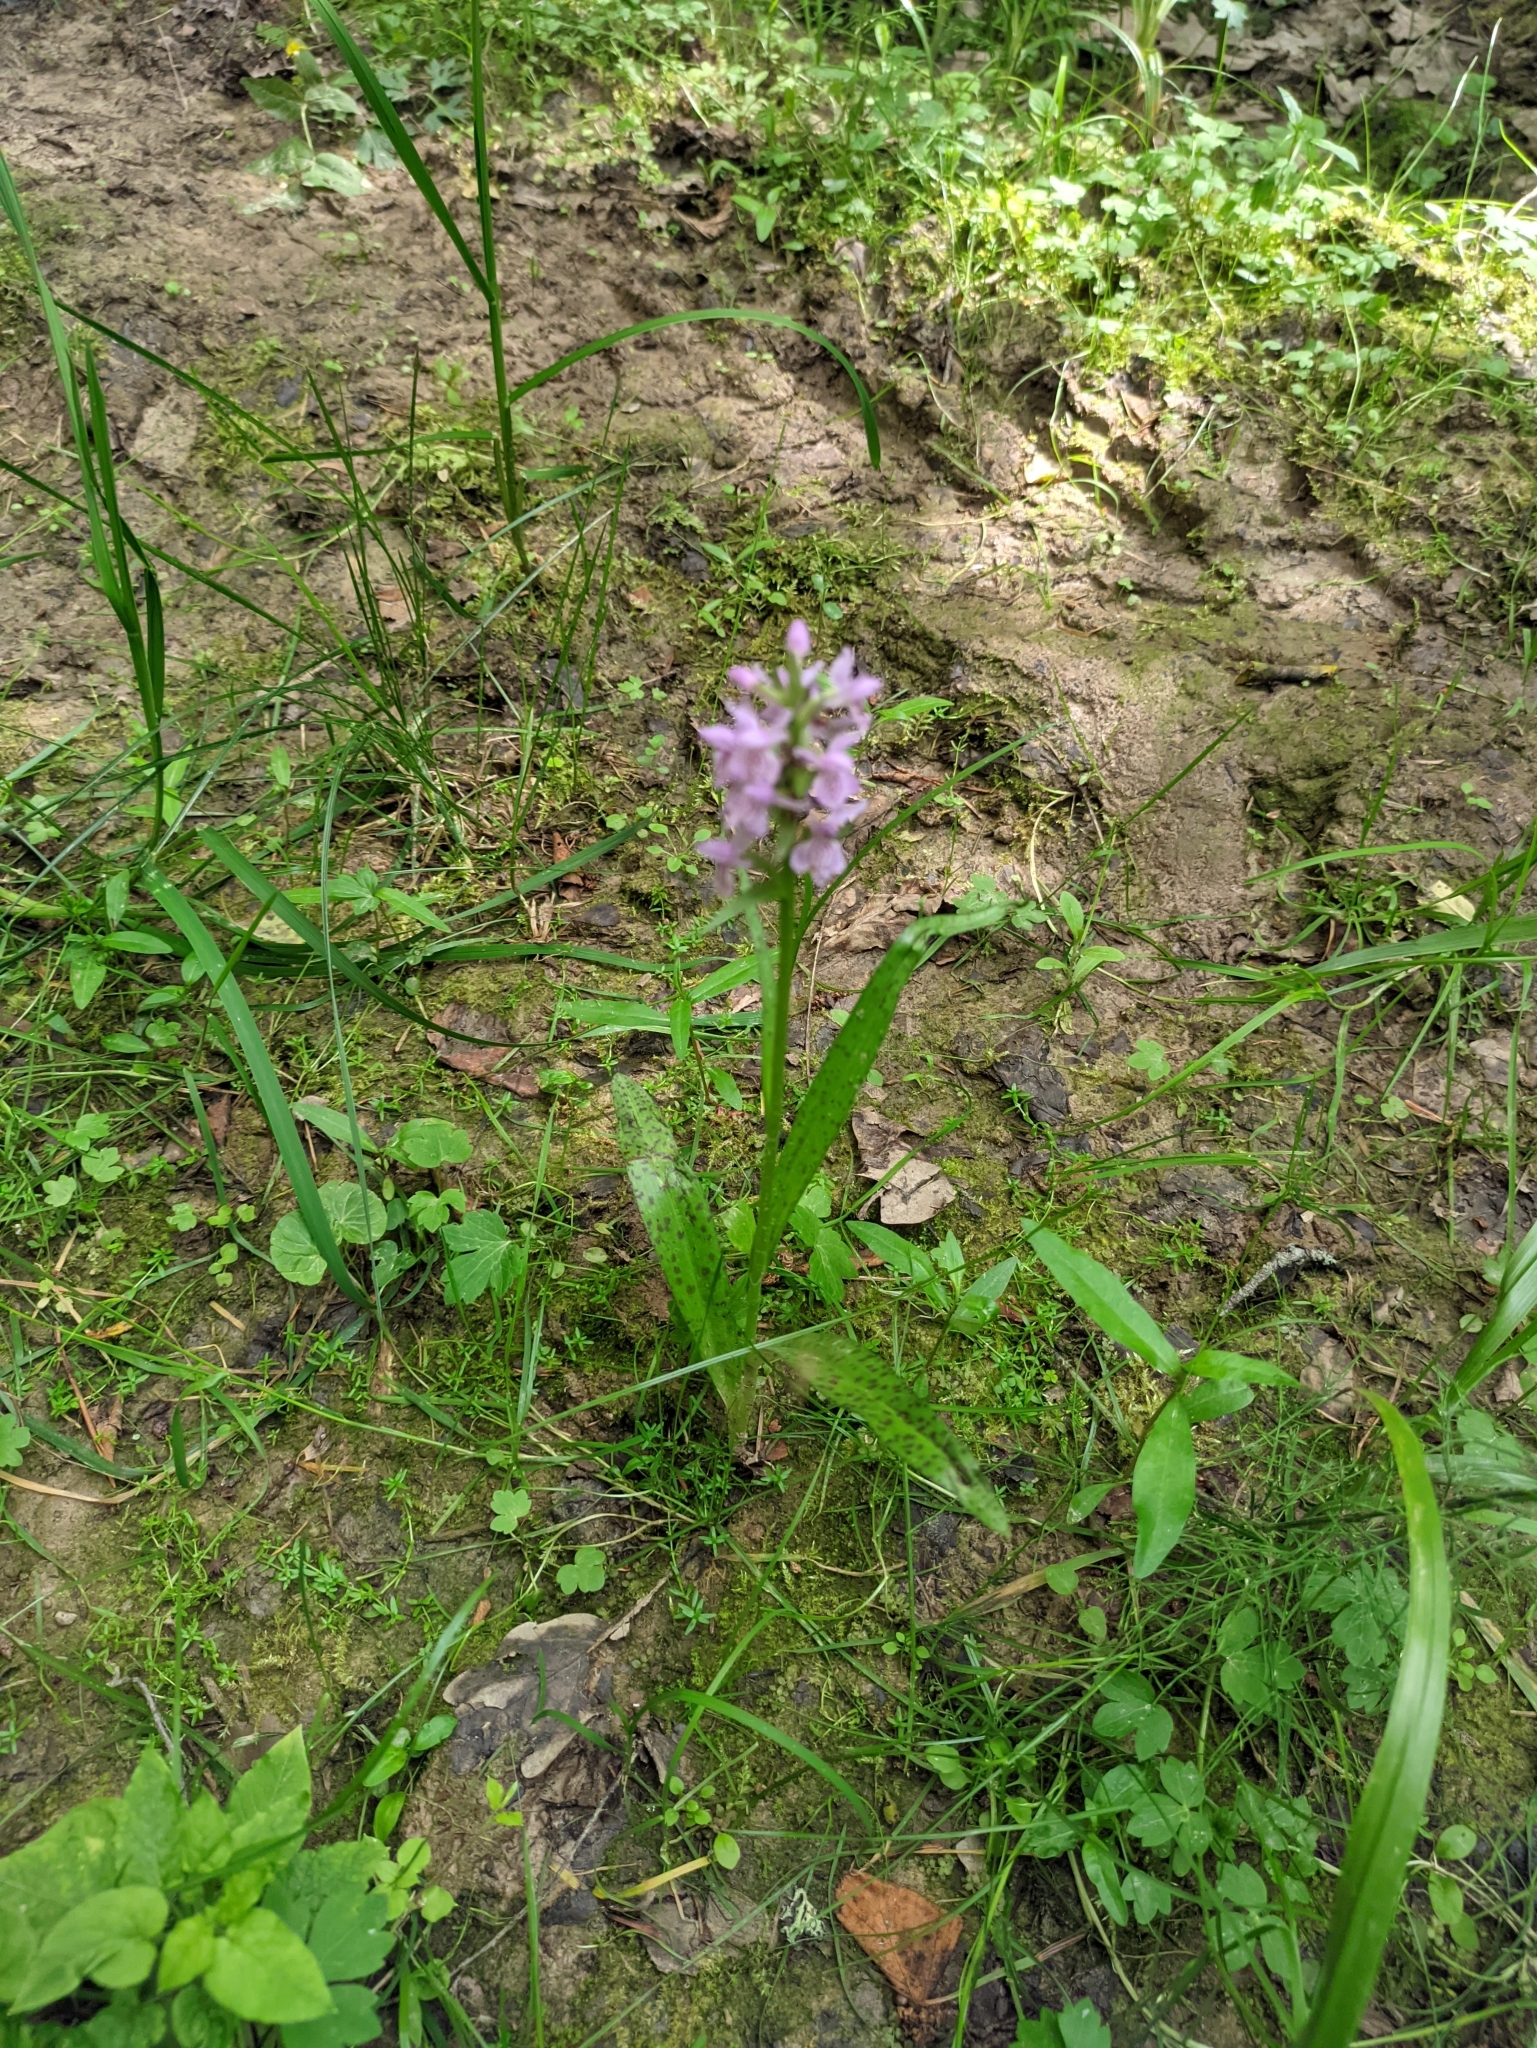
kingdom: Plantae
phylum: Tracheophyta
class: Liliopsida
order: Asparagales
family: Orchidaceae
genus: Dactylorhiza
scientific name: Dactylorhiza majalis
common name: Marsh orchid
